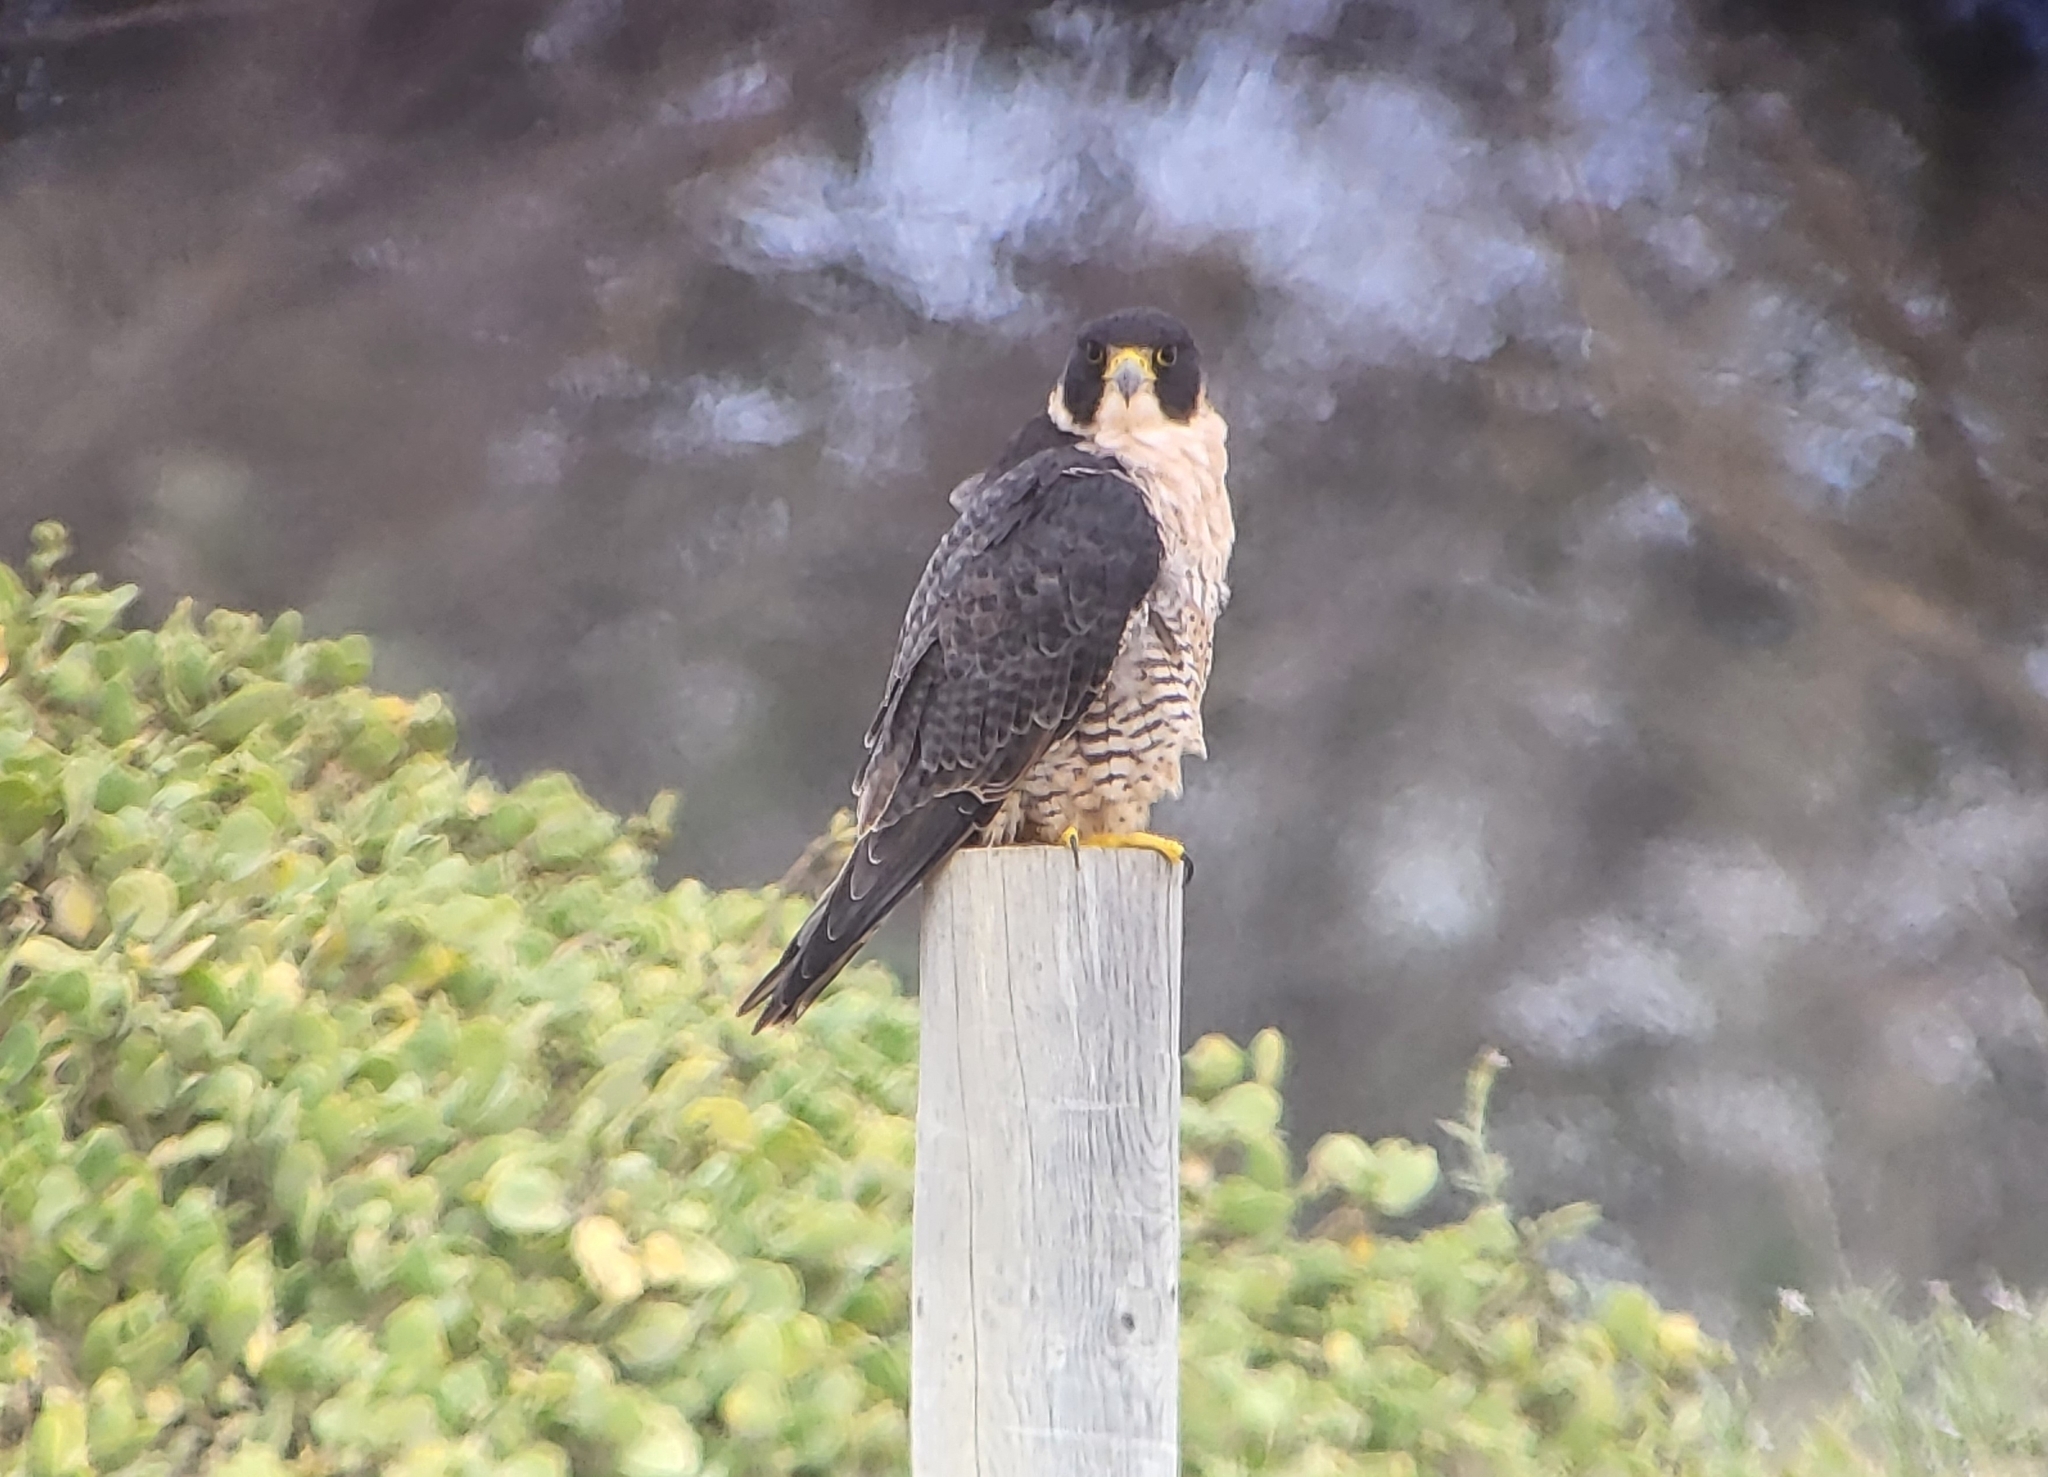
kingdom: Animalia
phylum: Chordata
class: Aves
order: Falconiformes
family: Falconidae
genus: Falco
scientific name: Falco peregrinus
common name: Peregrine falcon
